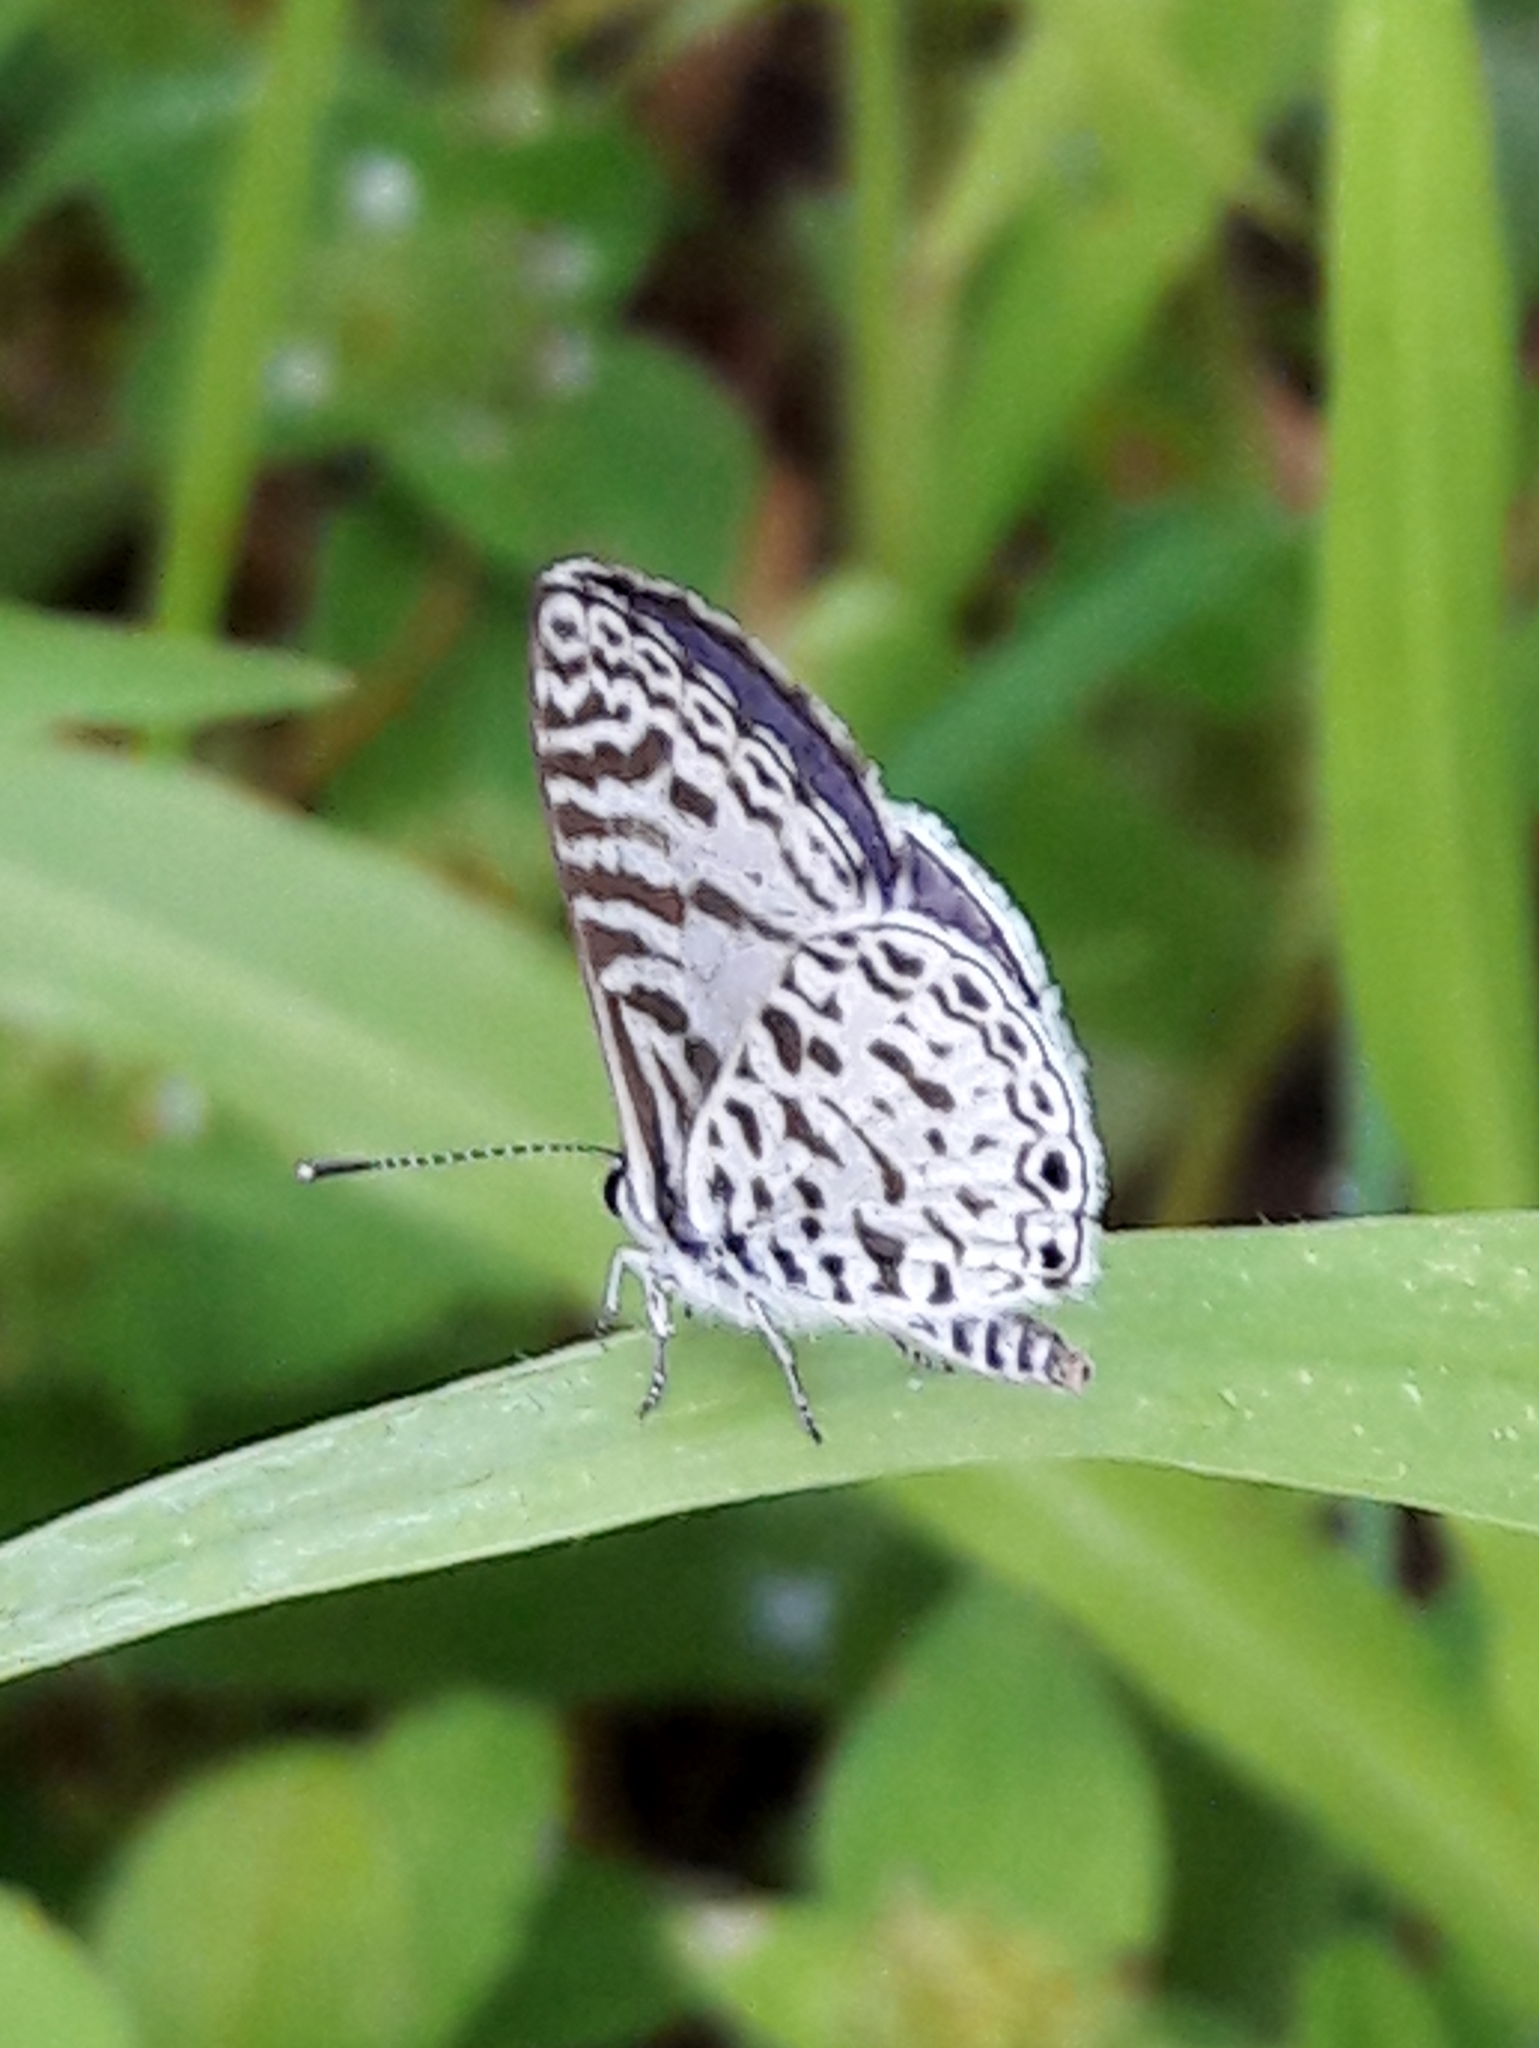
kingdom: Animalia
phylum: Arthropoda
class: Insecta
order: Lepidoptera
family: Lycaenidae
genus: Leptotes
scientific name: Leptotes cassius
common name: Cassius blue
